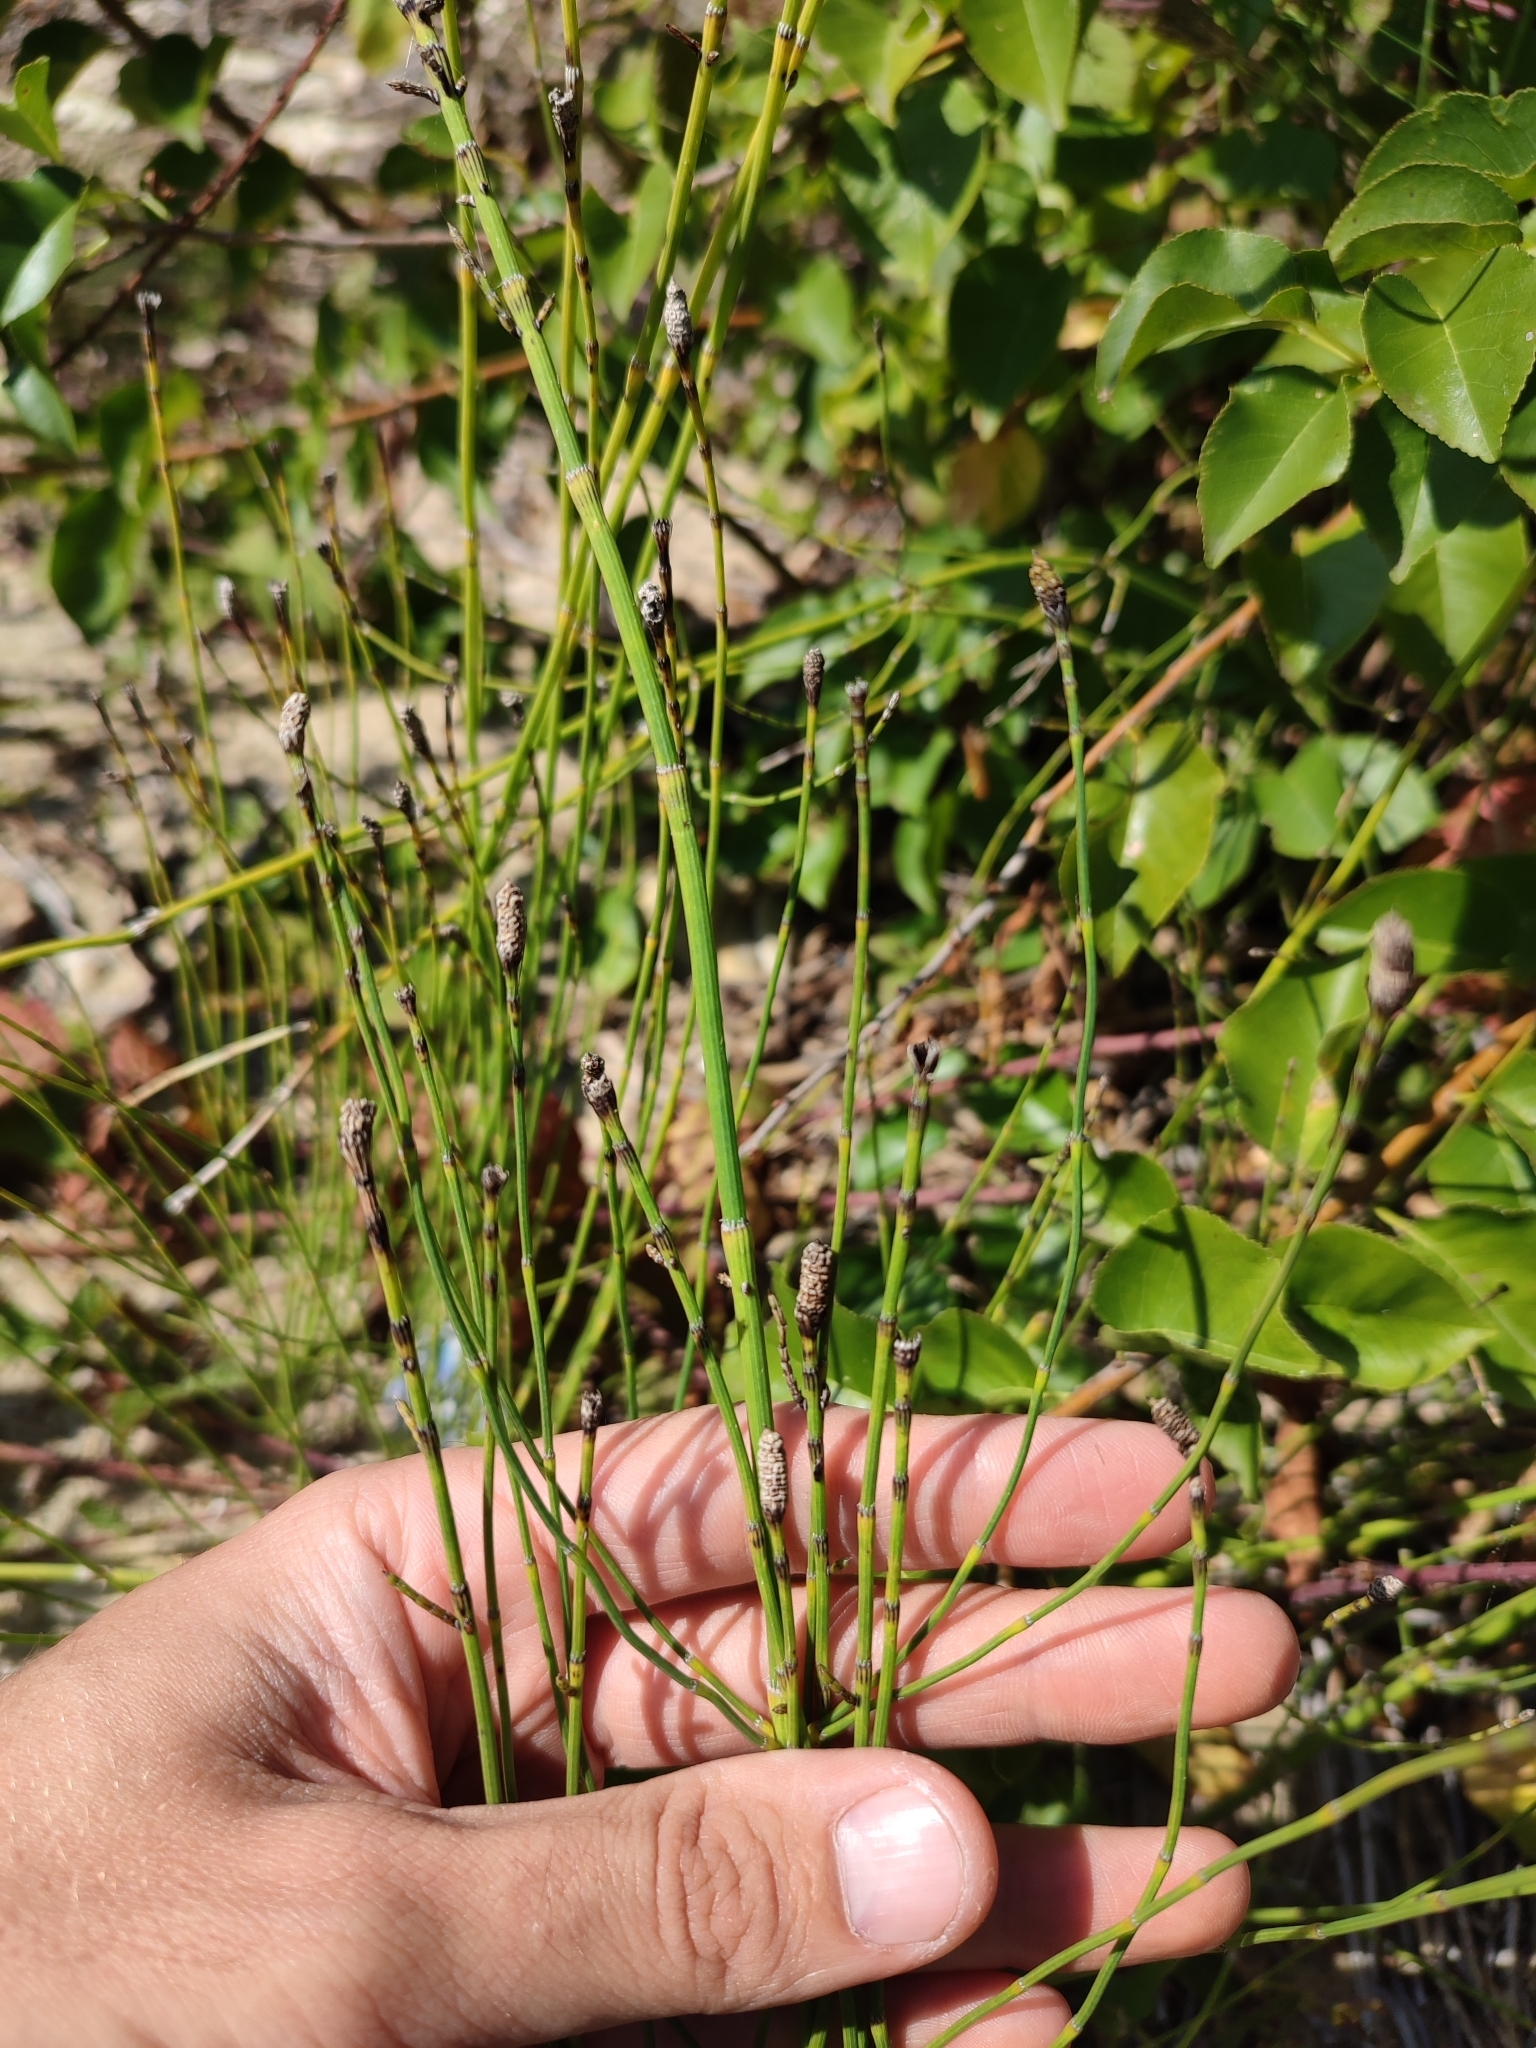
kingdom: Plantae
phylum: Tracheophyta
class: Polypodiopsida
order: Equisetales
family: Equisetaceae
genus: Equisetum
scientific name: Equisetum ramosissimum
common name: Branched horsetail
